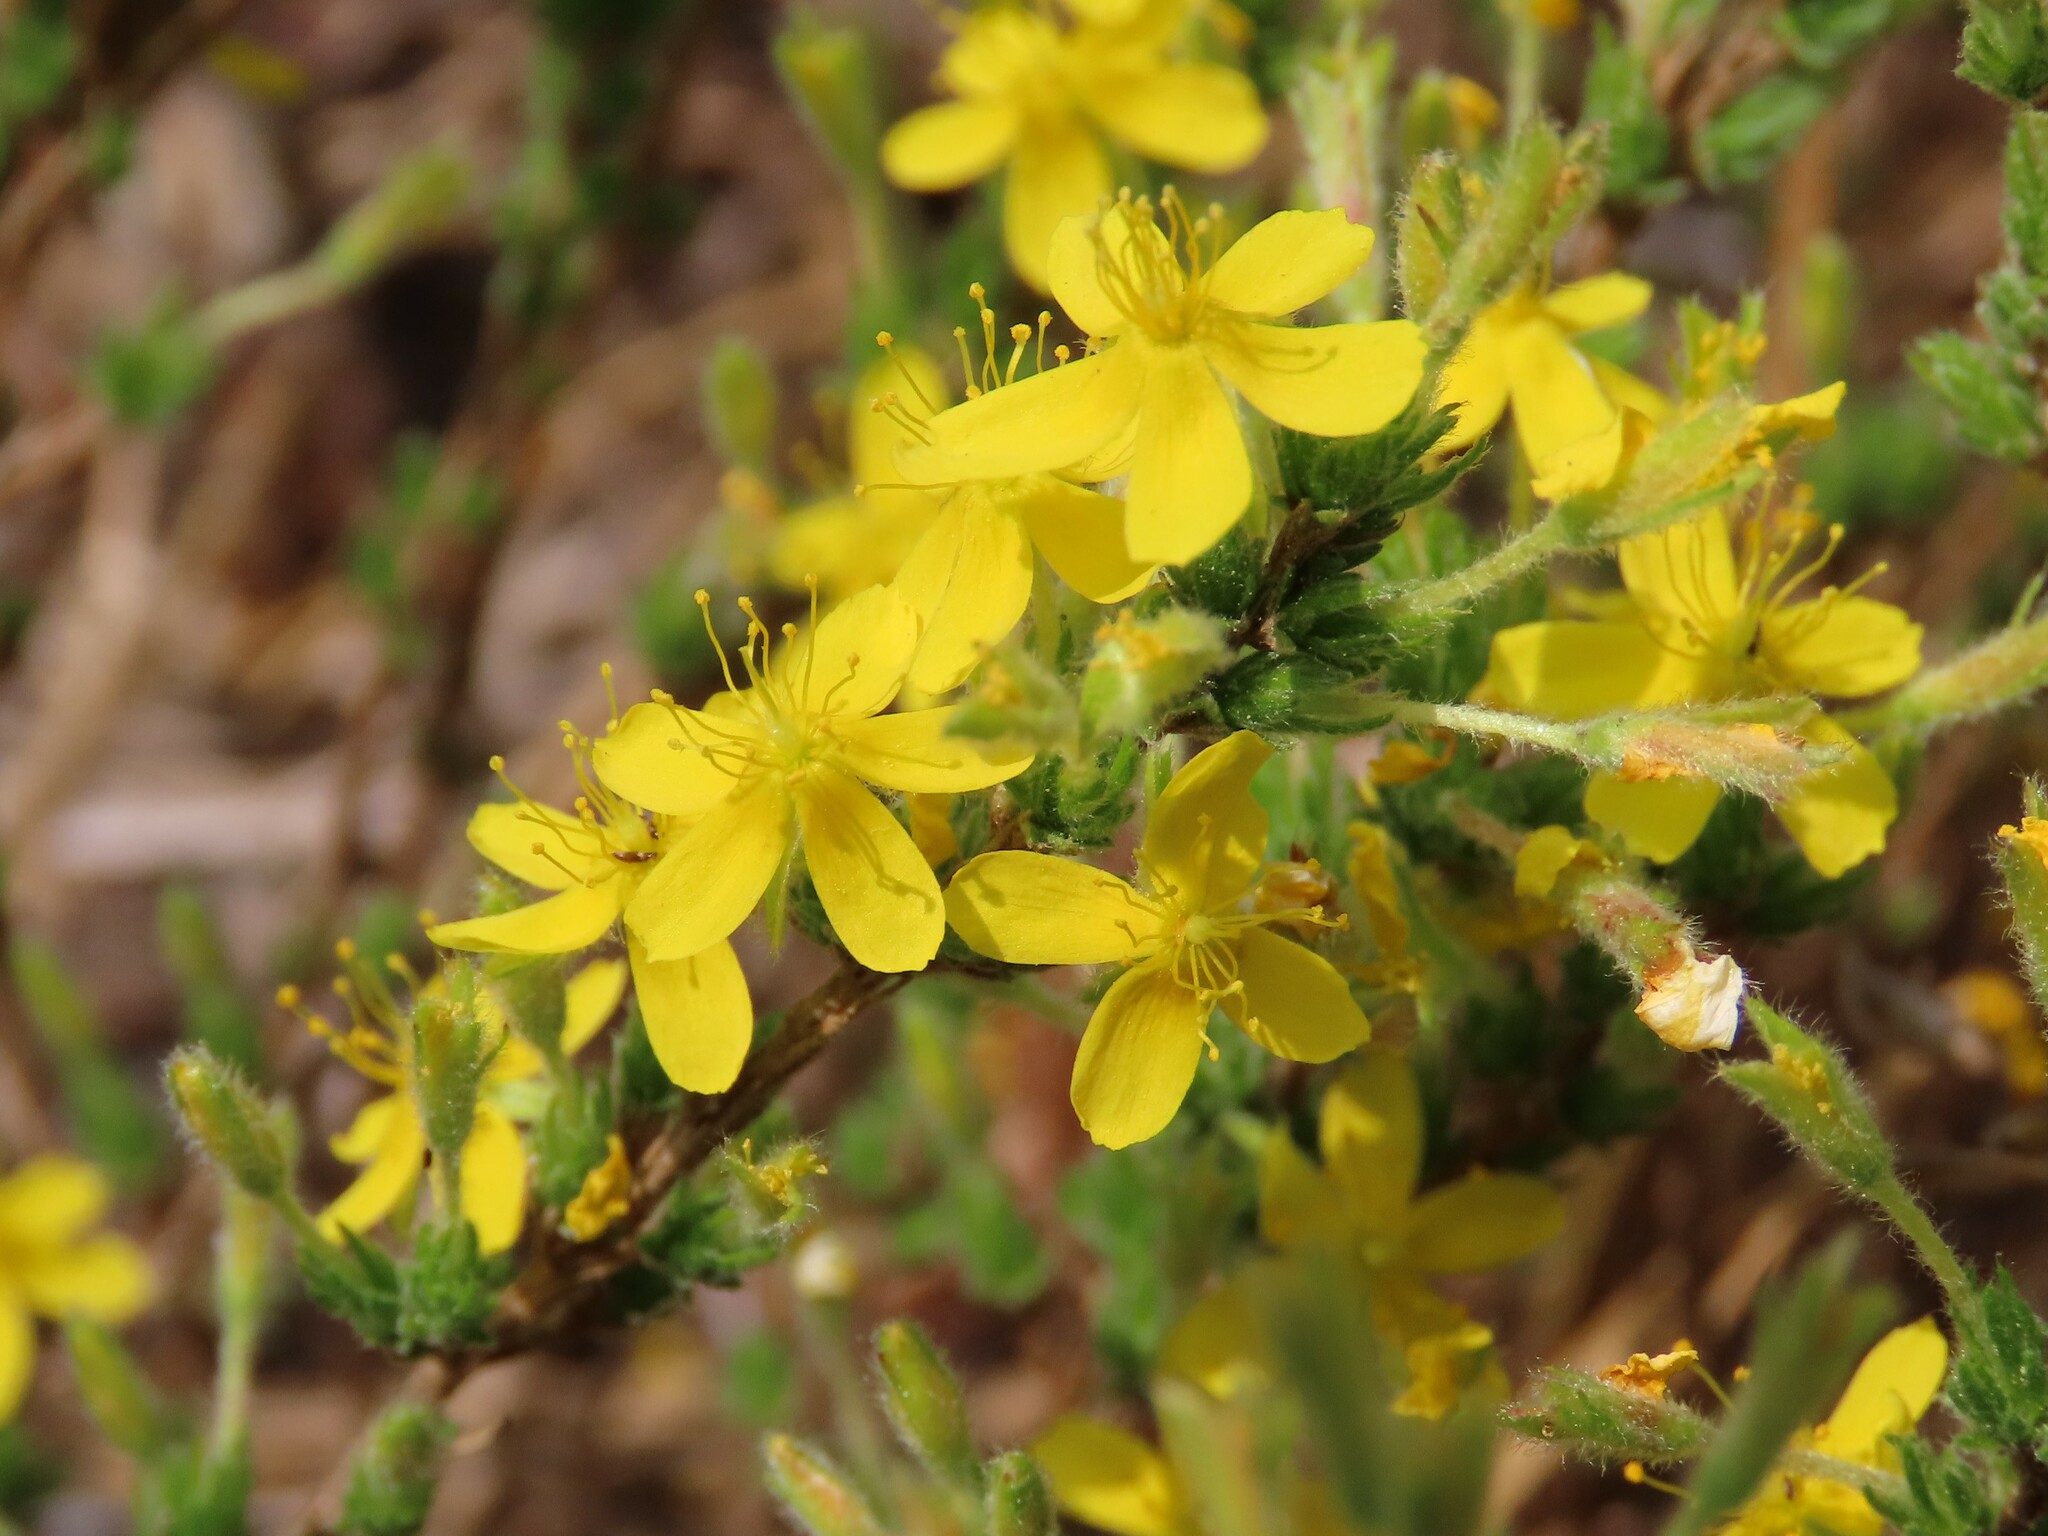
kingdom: Plantae
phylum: Tracheophyta
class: Magnoliopsida
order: Malvales
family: Cistaceae
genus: Hudsonia
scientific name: Hudsonia ericoides
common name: Golden-heather
